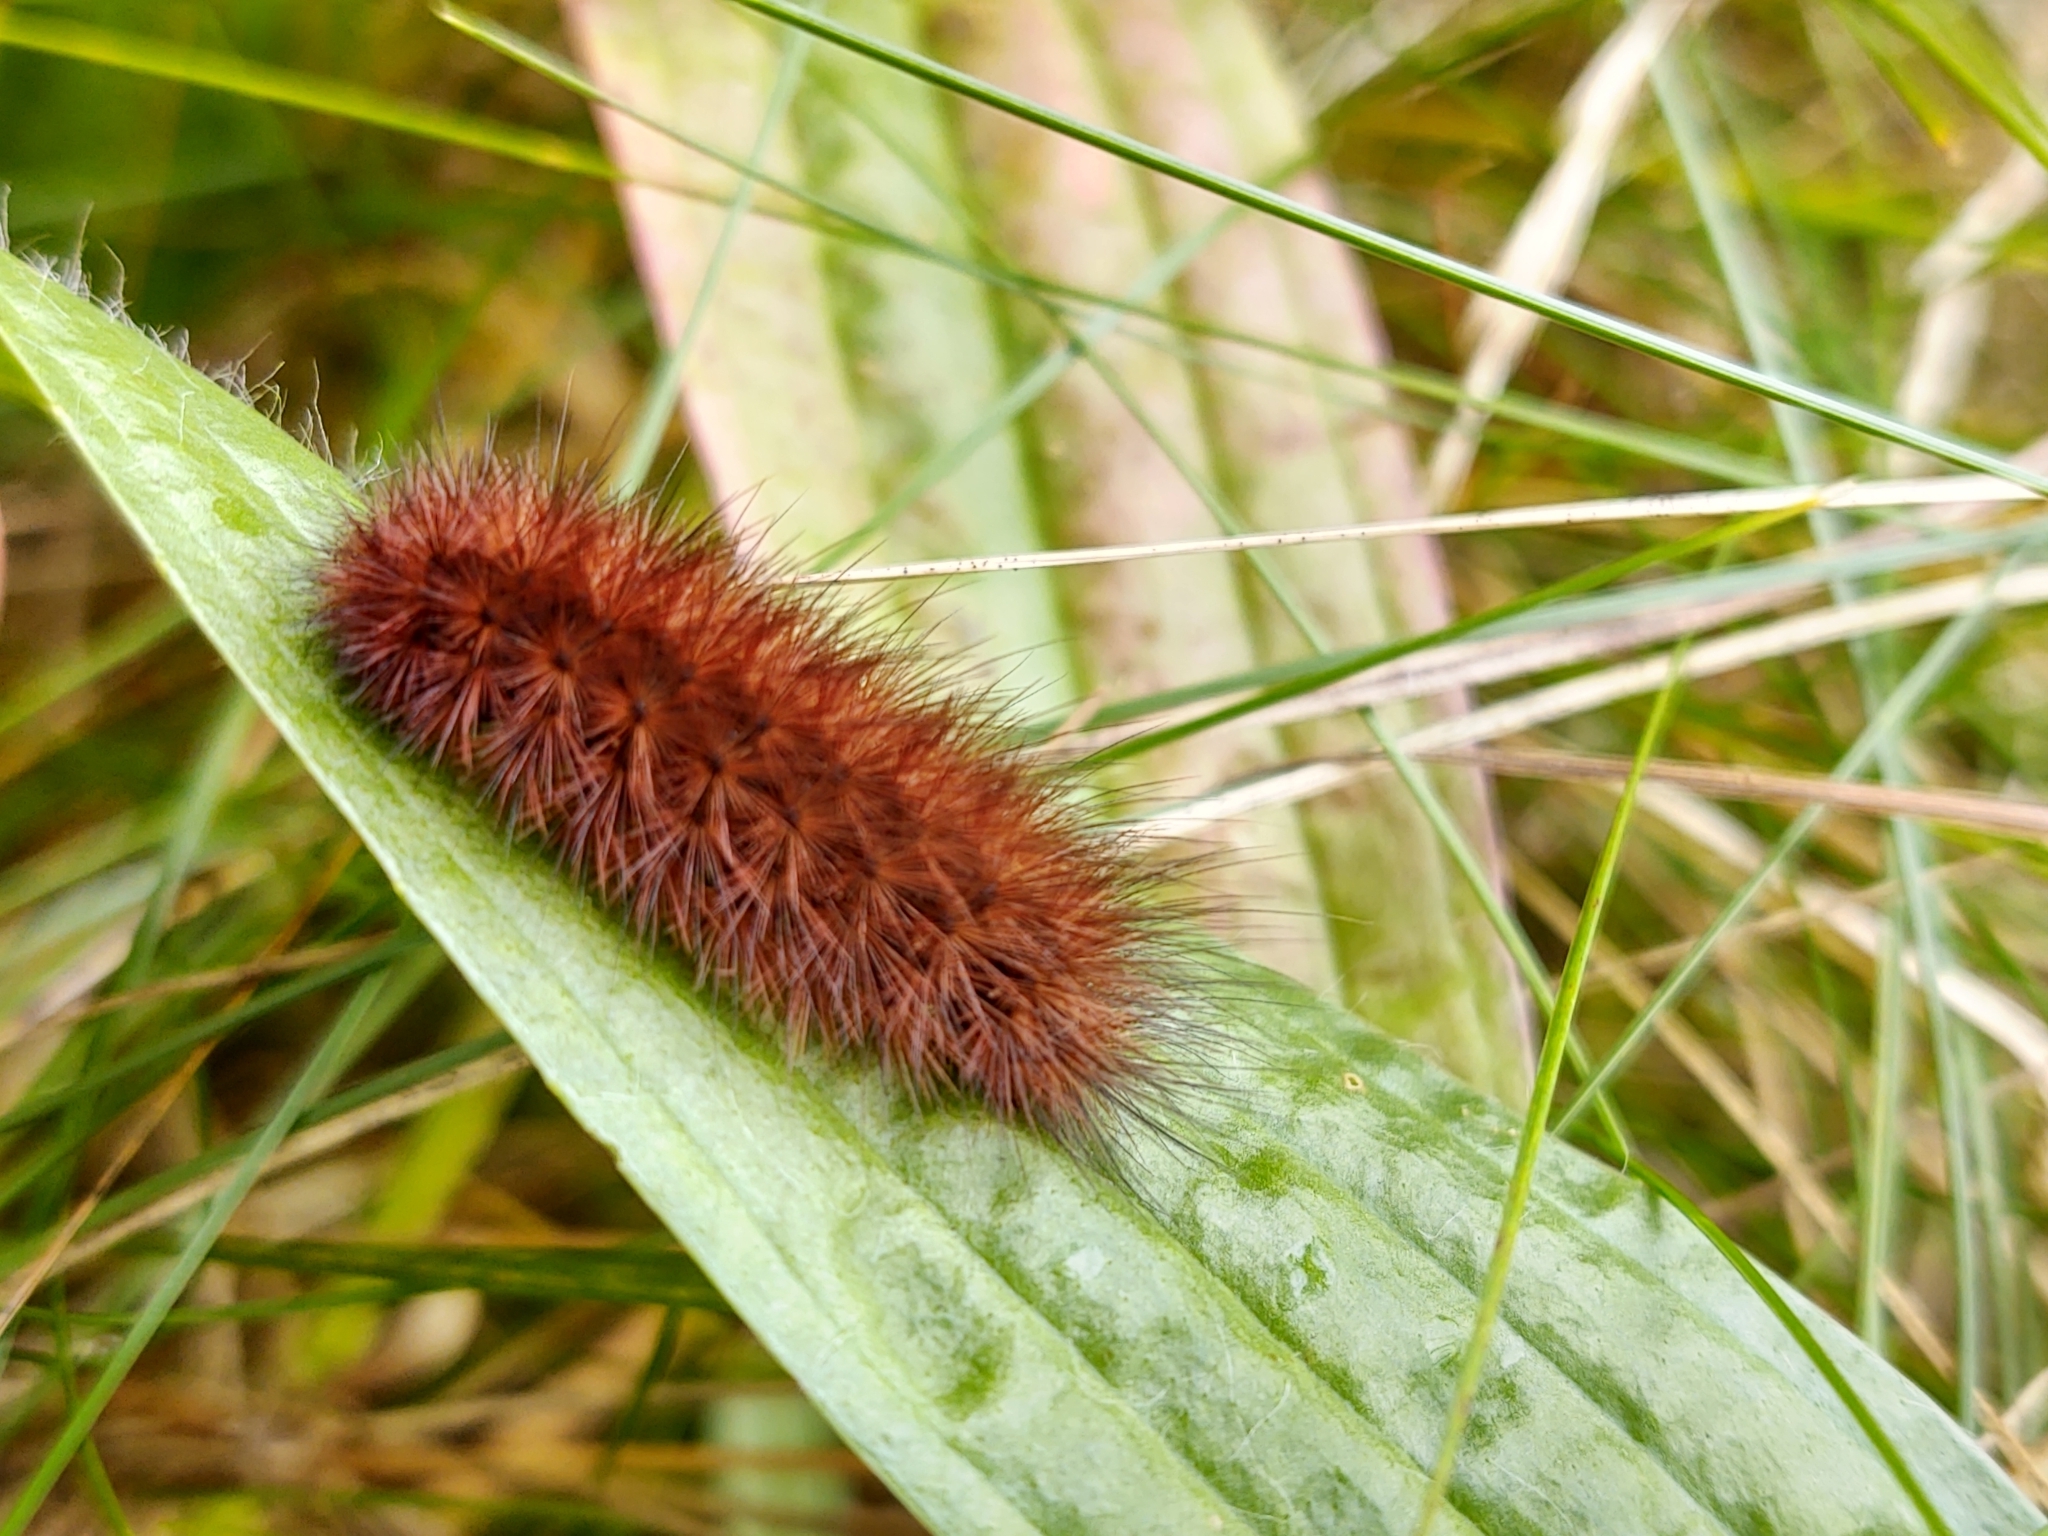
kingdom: Animalia
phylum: Arthropoda
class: Insecta
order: Lepidoptera
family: Erebidae
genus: Phragmatobia
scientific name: Phragmatobia fuliginosa
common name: Ruby tiger
